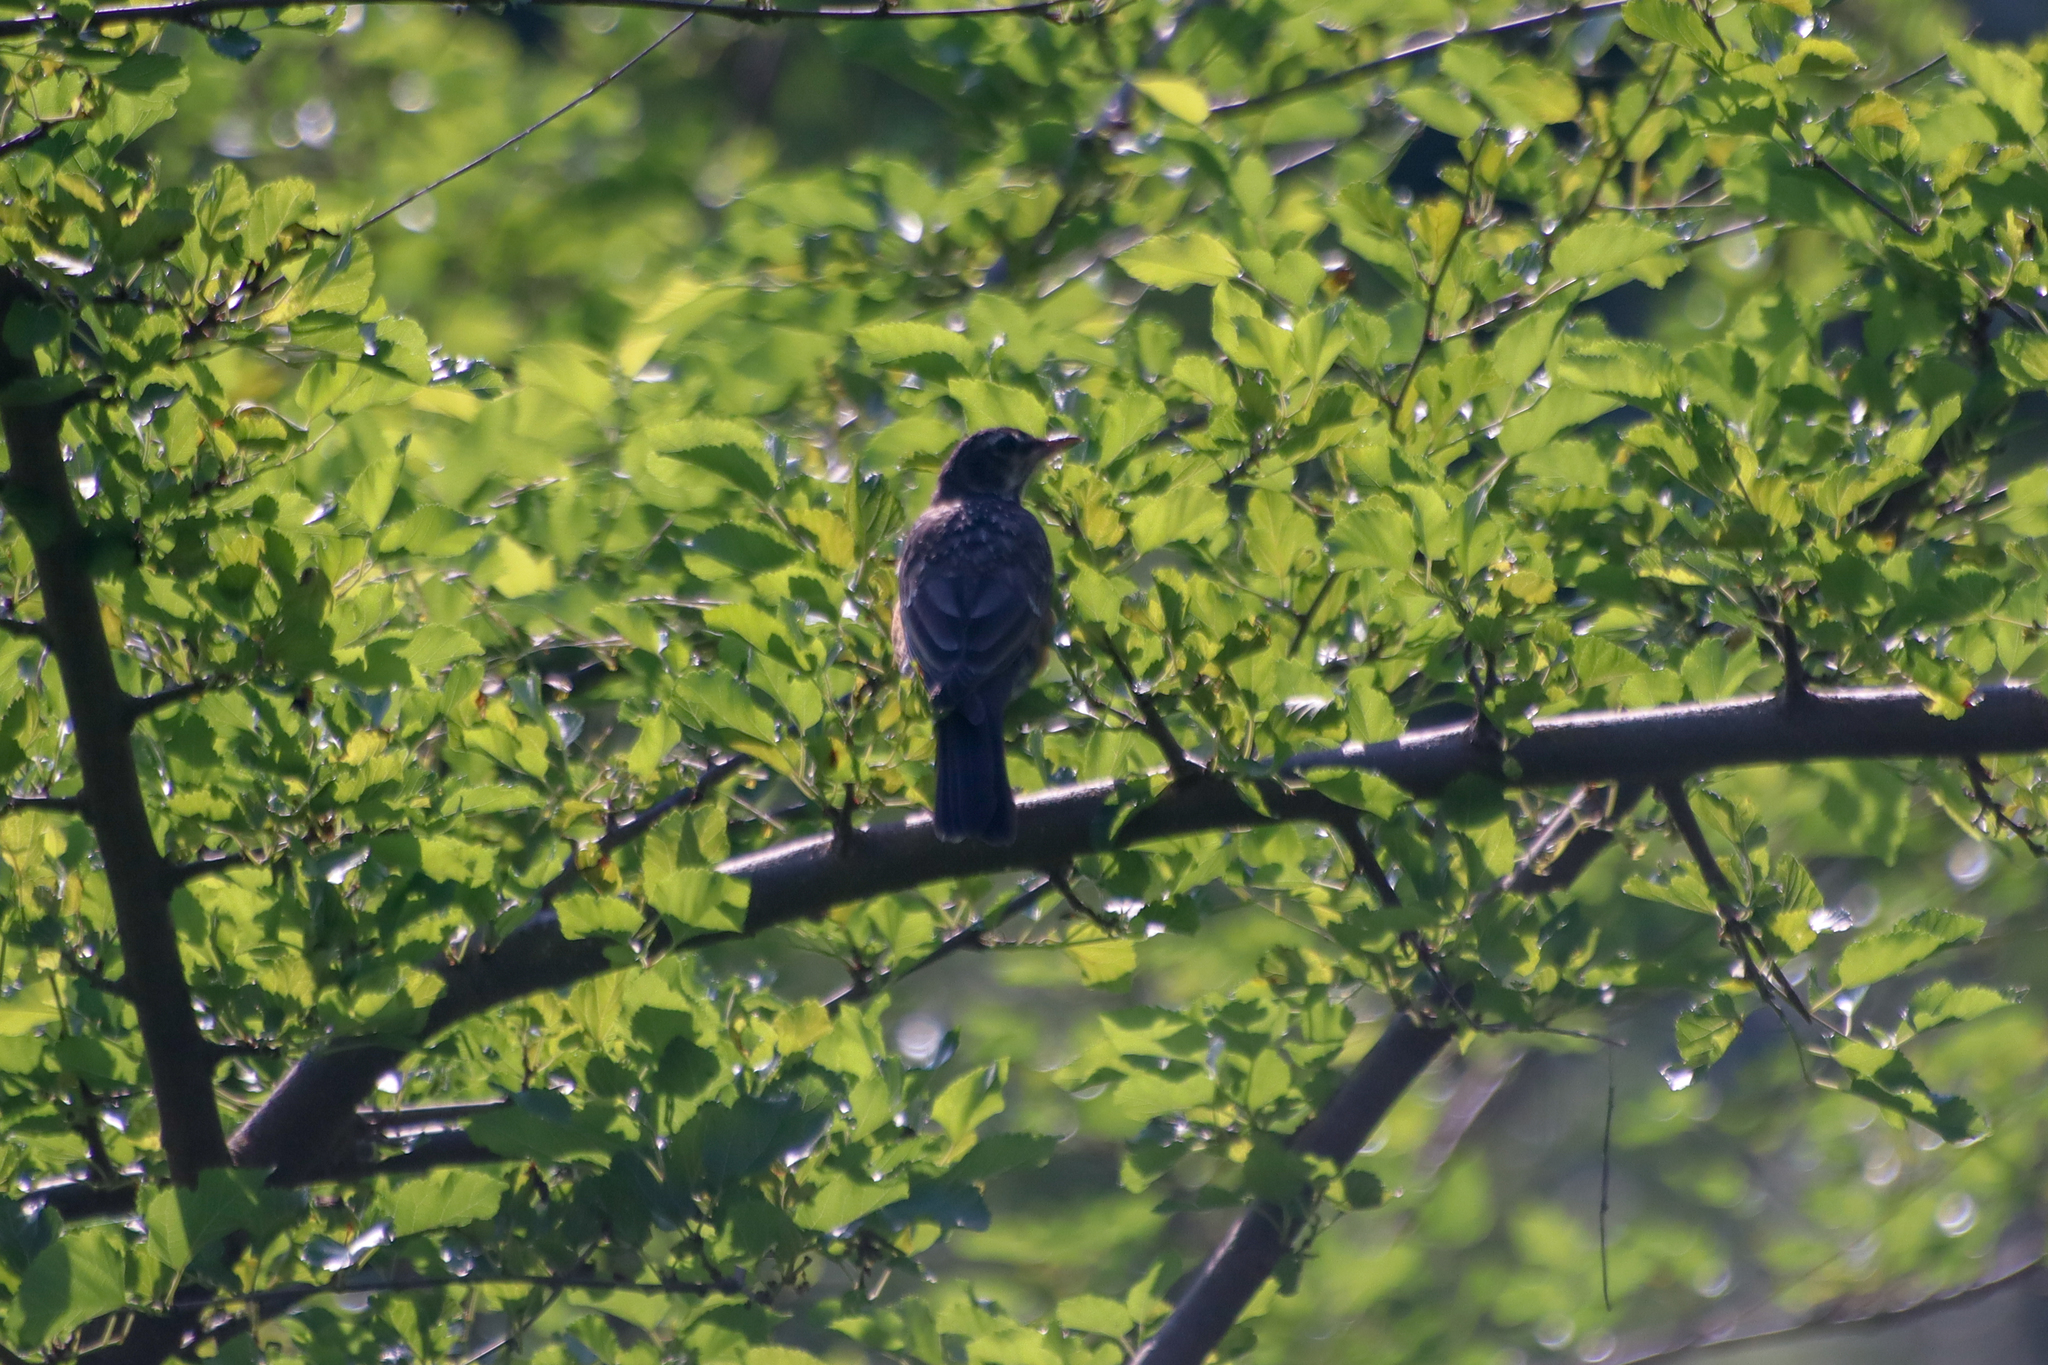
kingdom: Animalia
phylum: Chordata
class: Aves
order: Passeriformes
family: Turdidae
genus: Turdus
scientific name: Turdus migratorius
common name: American robin
